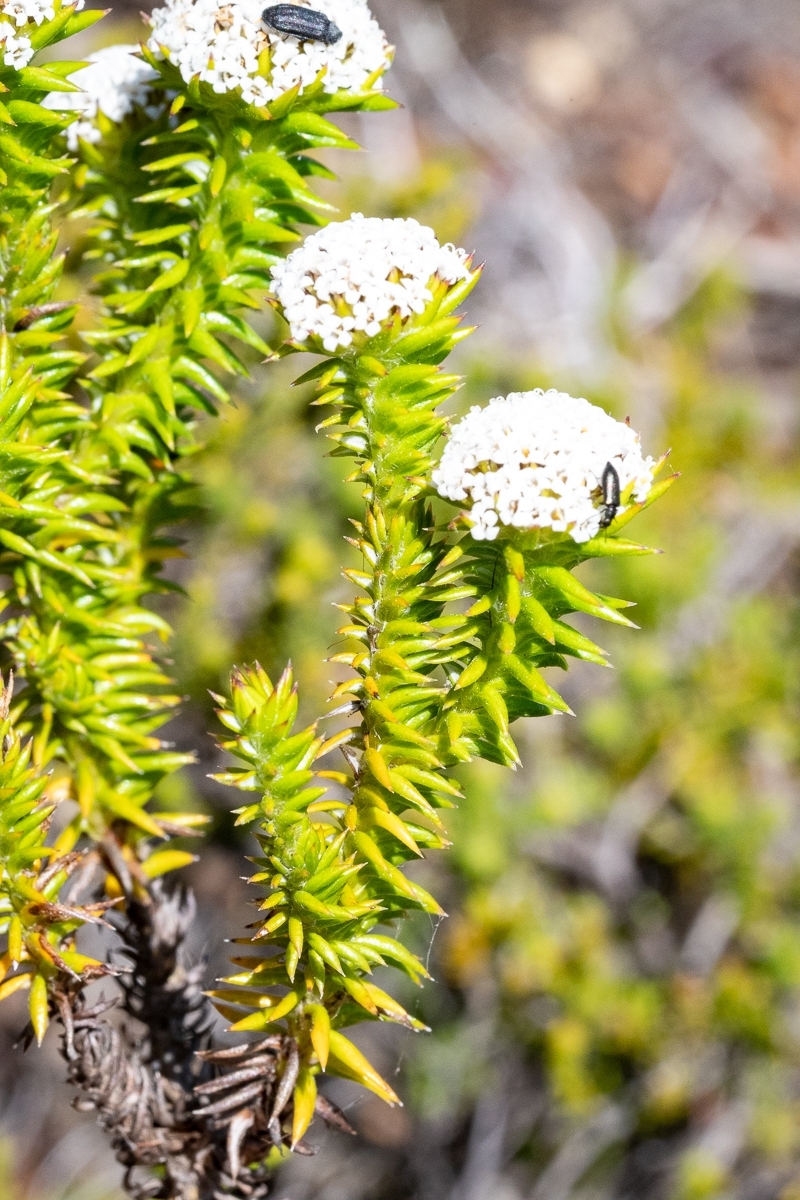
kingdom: Plantae
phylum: Tracheophyta
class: Magnoliopsida
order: Asterales
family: Asteraceae
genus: Stoebe
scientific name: Stoebe aethiopica
